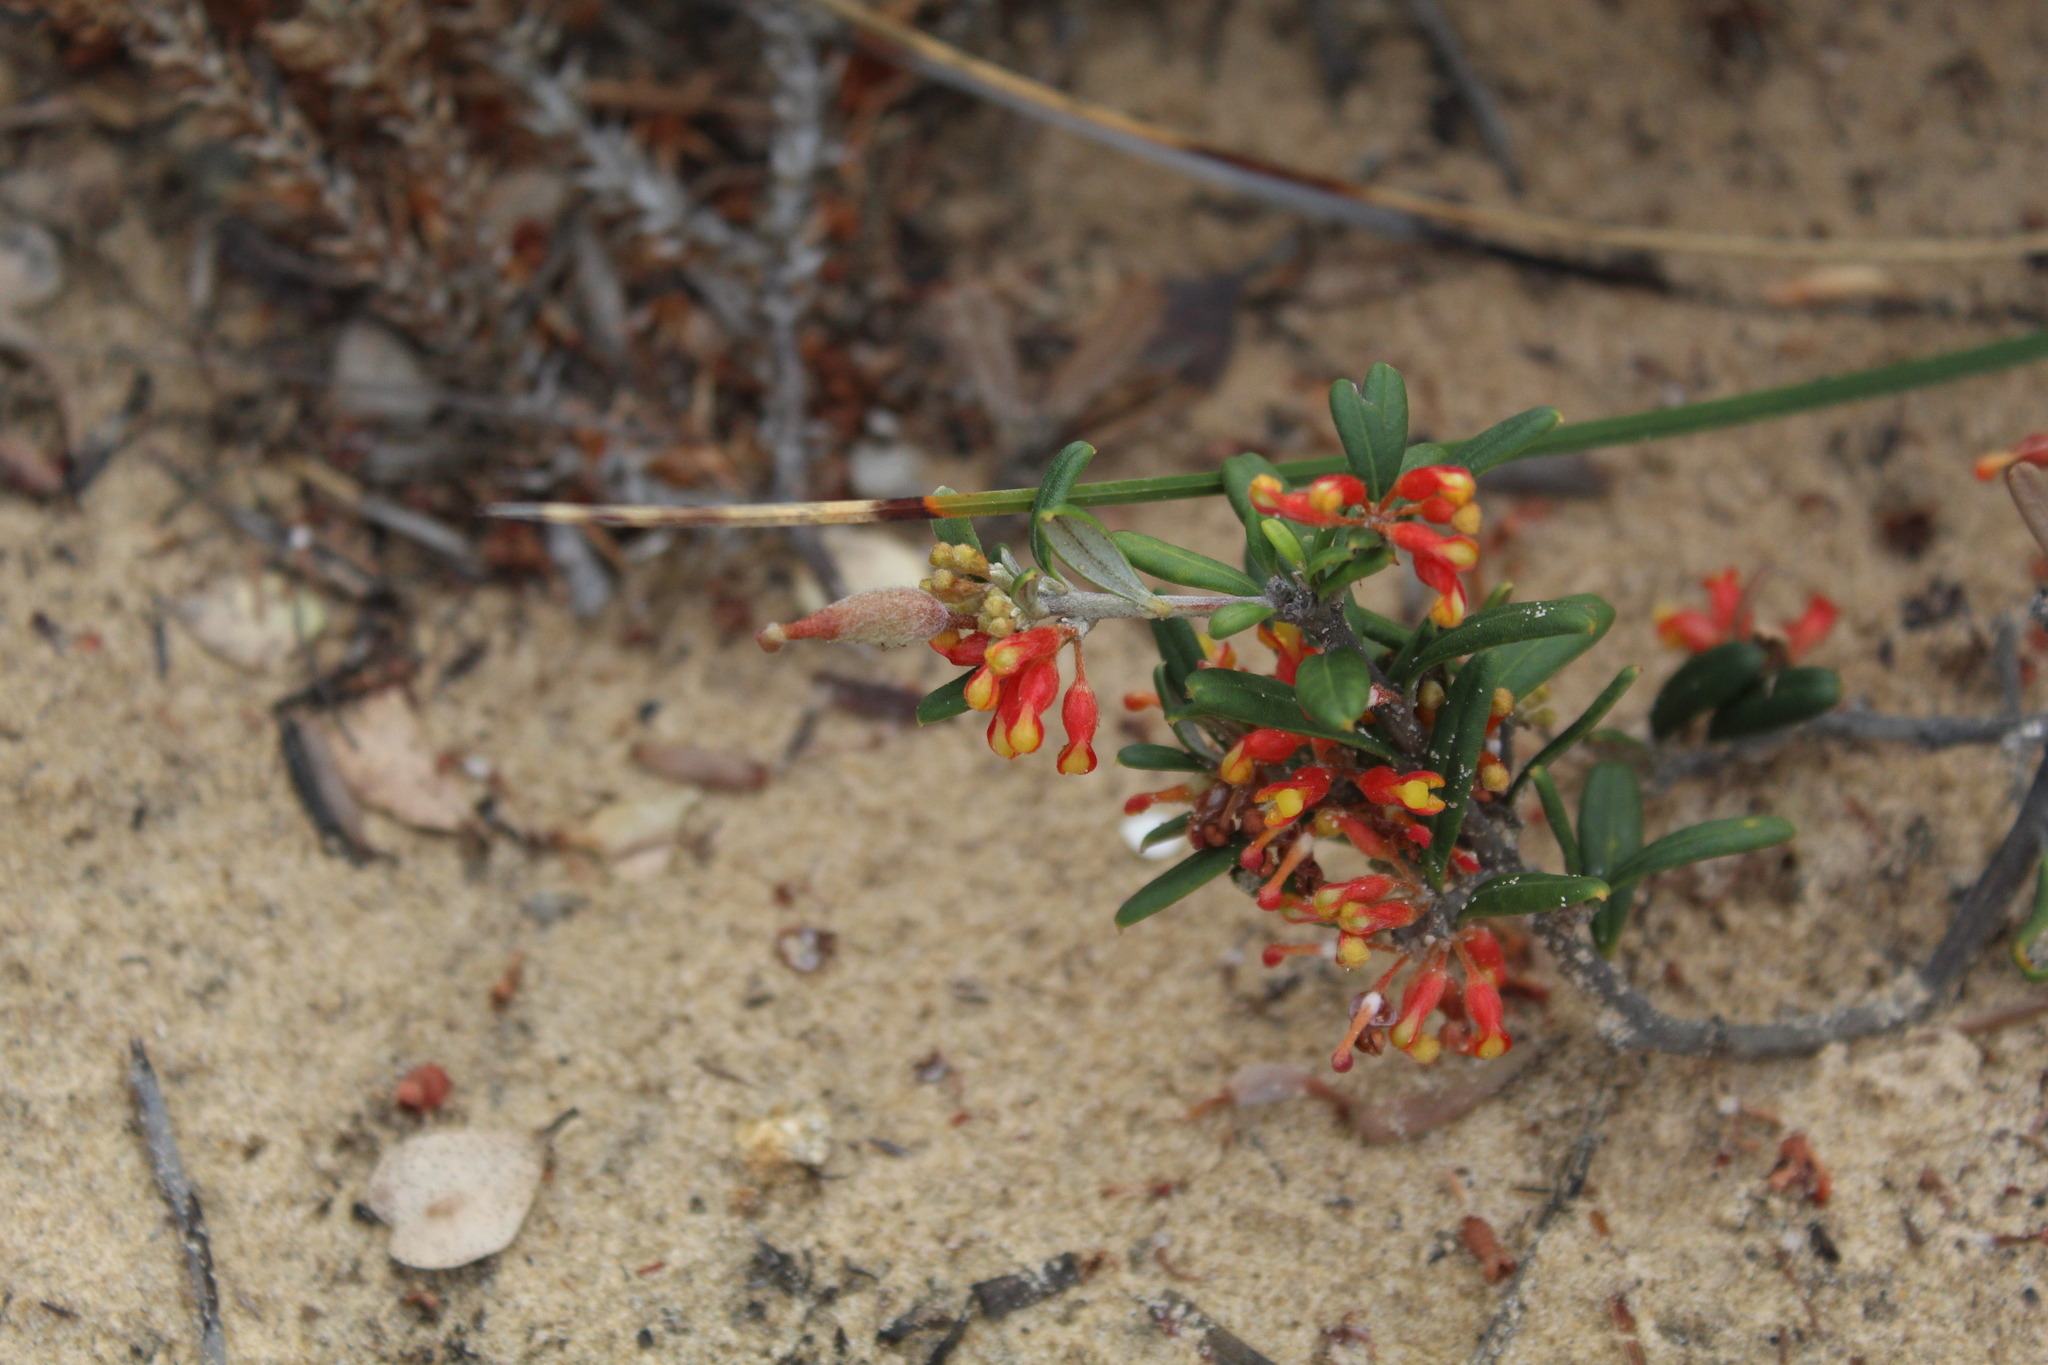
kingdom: Plantae
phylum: Tracheophyta
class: Magnoliopsida
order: Proteales
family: Proteaceae
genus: Grevillea
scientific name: Grevillea fasciculata
